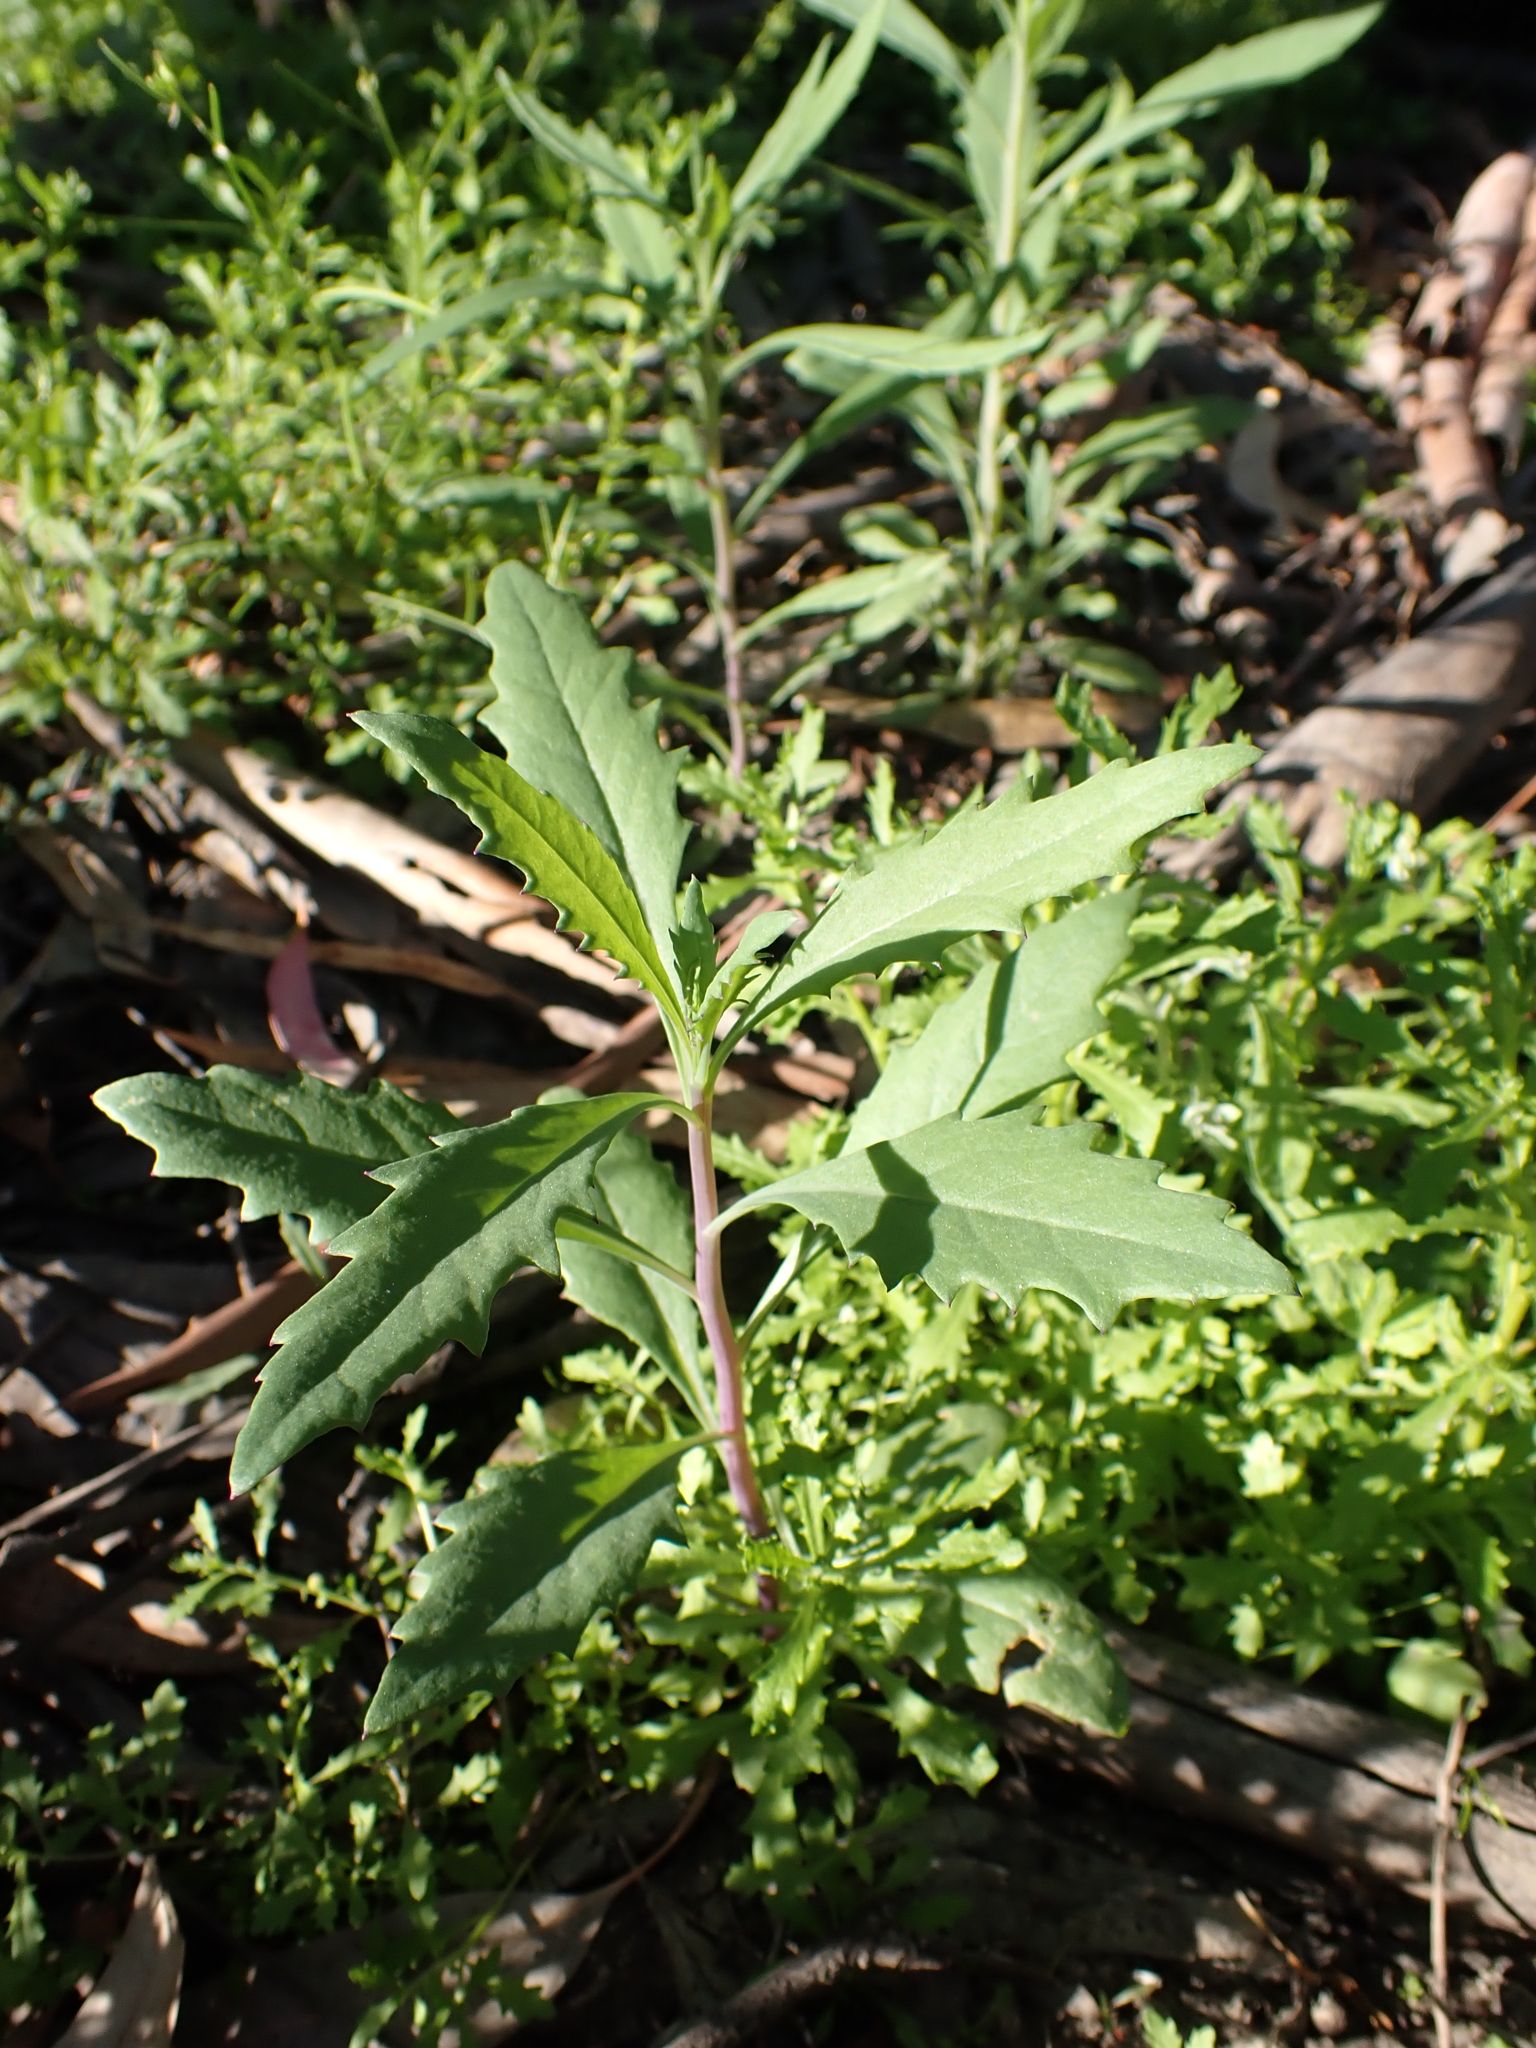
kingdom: Plantae
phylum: Tracheophyta
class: Magnoliopsida
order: Asterales
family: Asteraceae
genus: Senecio
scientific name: Senecio cunninghamii
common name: Bushy groundsel
